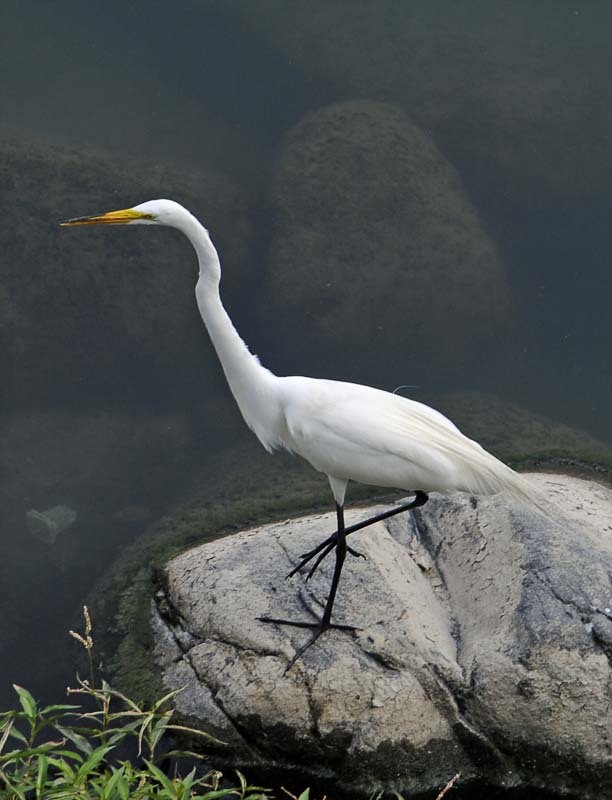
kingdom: Animalia
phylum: Chordata
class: Aves
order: Pelecaniformes
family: Ardeidae
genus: Ardea
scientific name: Ardea alba
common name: Great egret
